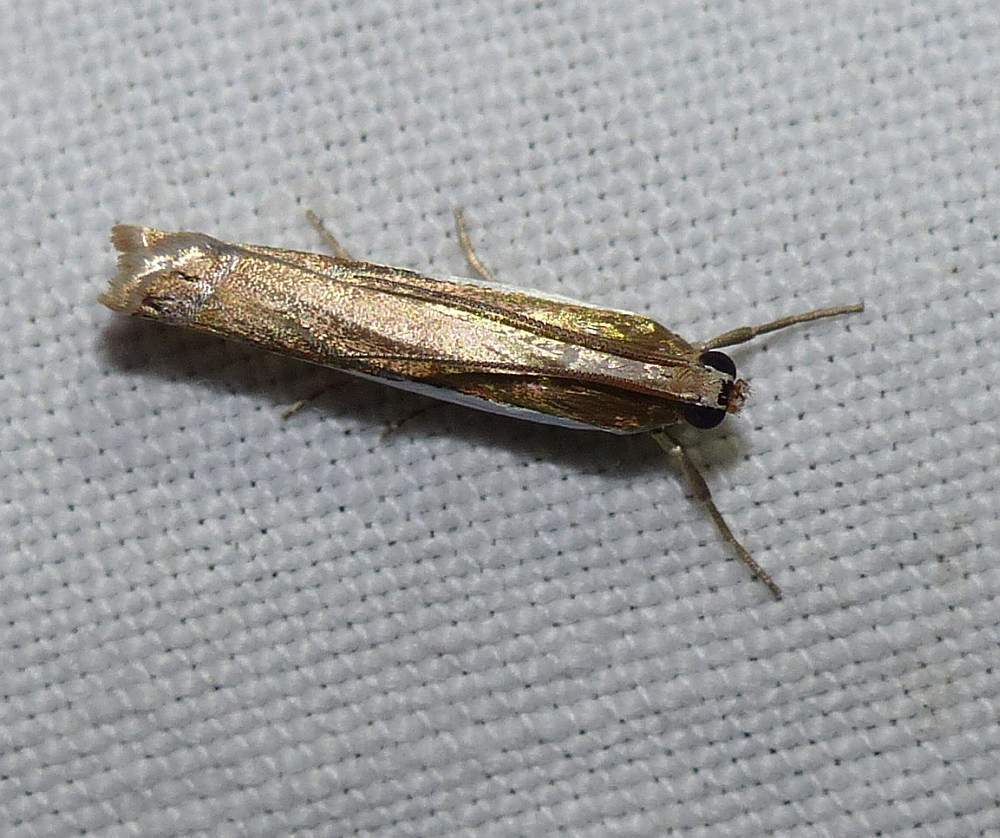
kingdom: Animalia
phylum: Arthropoda
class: Insecta
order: Lepidoptera
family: Crambidae
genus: Crambus
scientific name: Crambus
